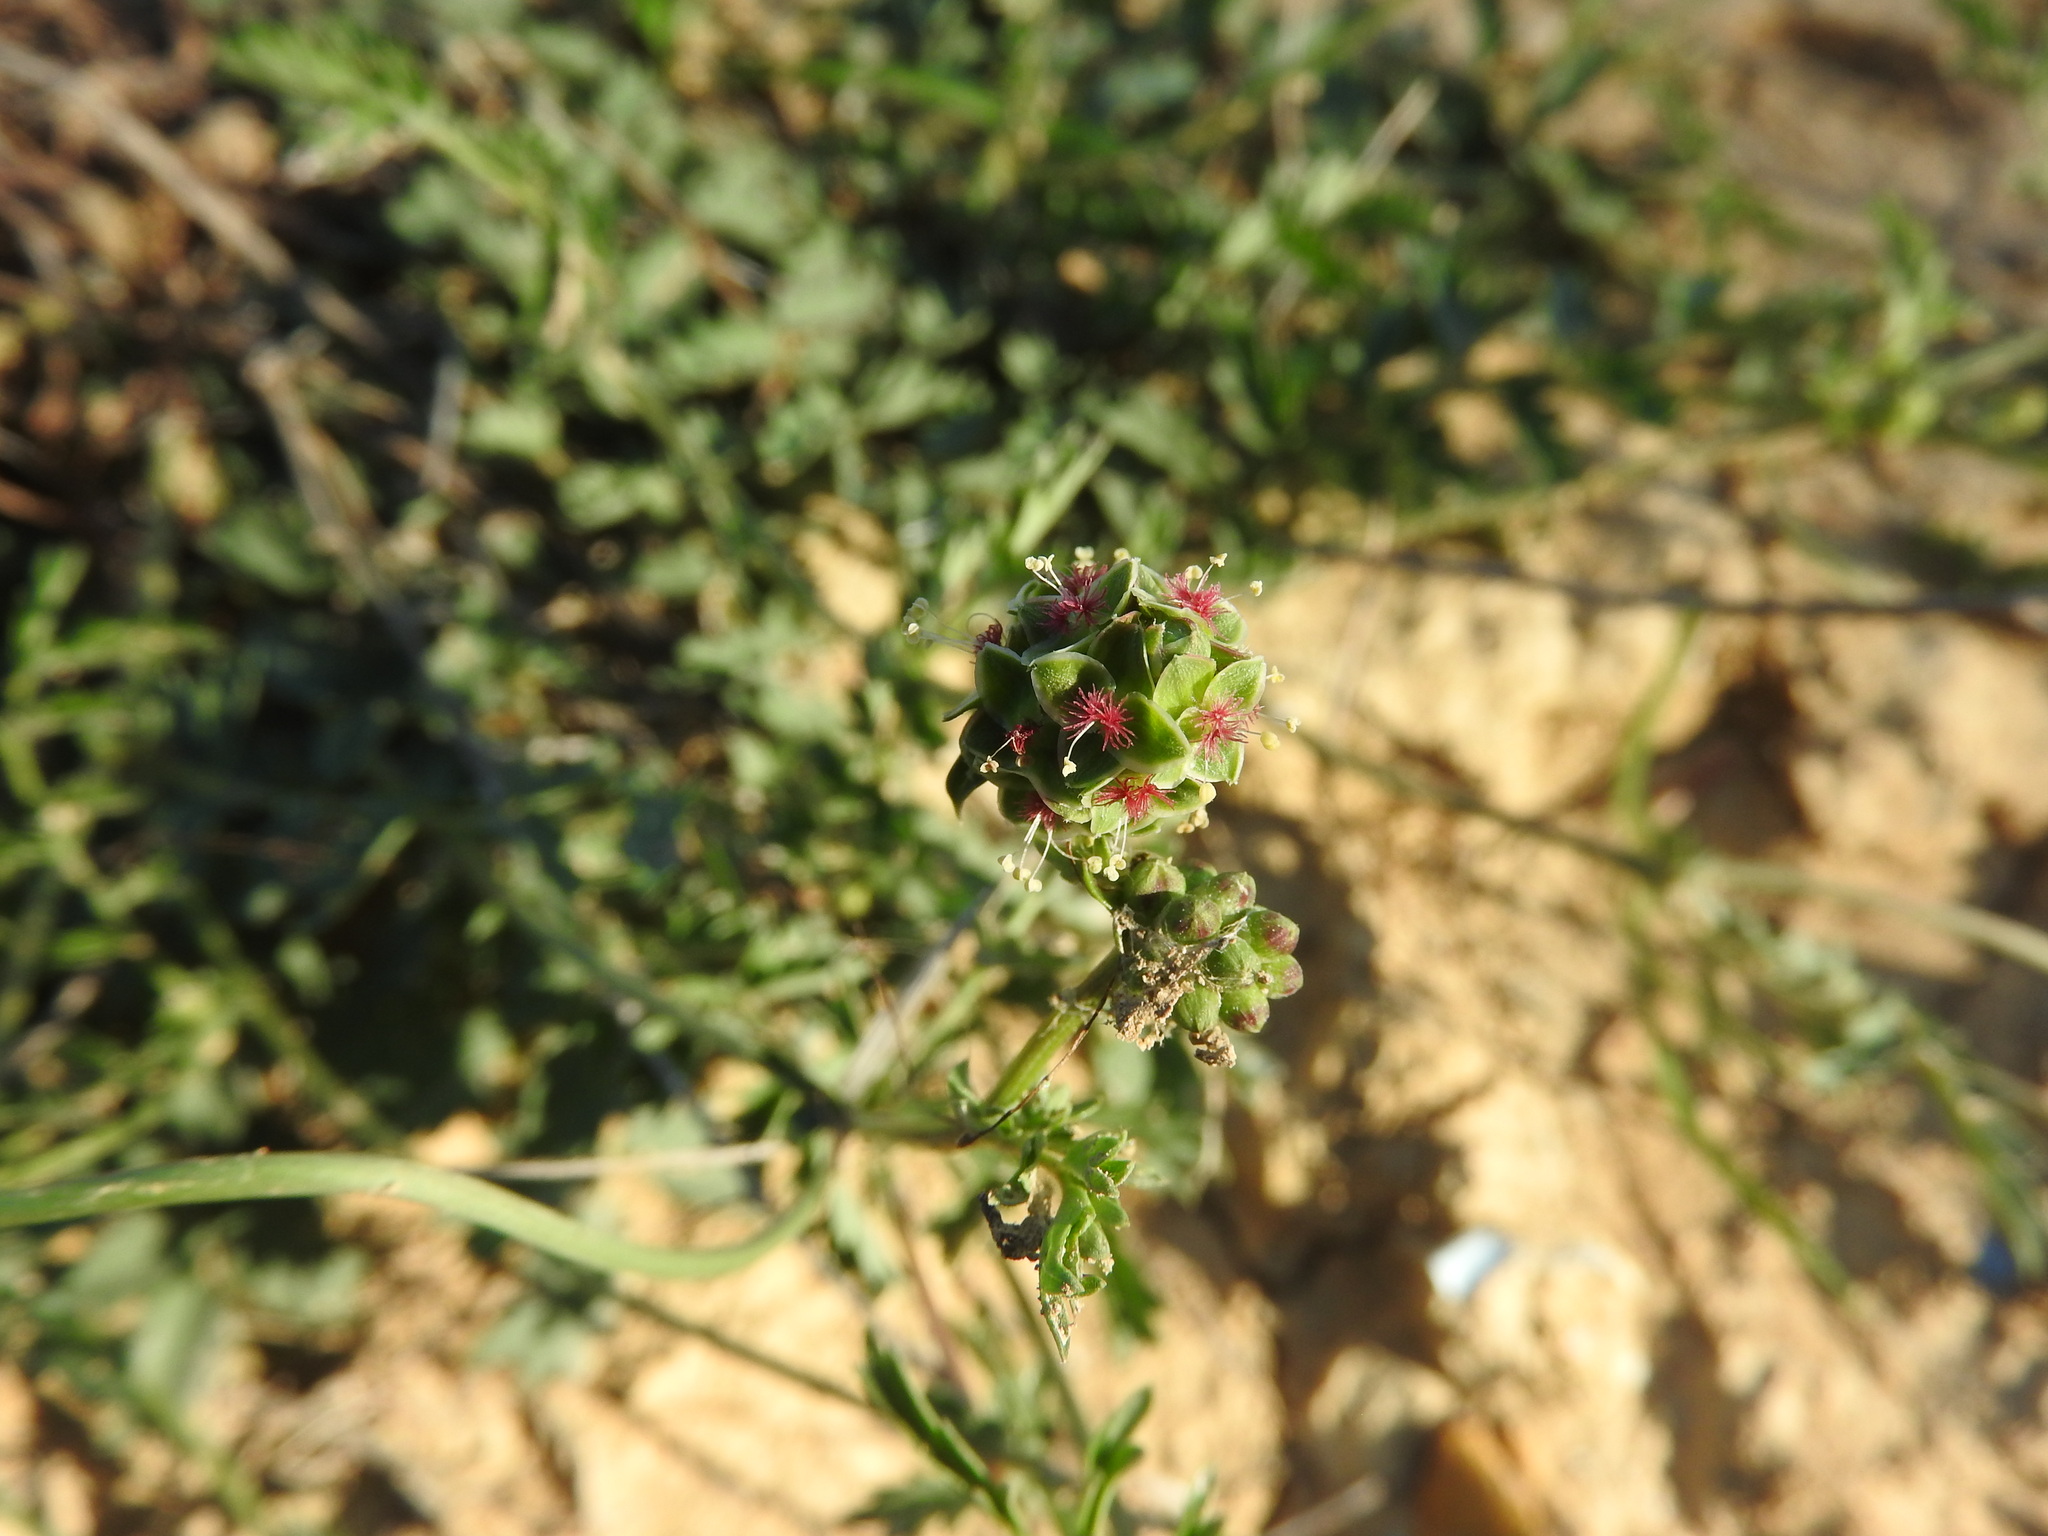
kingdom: Plantae
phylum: Tracheophyta
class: Magnoliopsida
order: Rosales
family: Rosaceae
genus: Poterium
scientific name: Poterium
